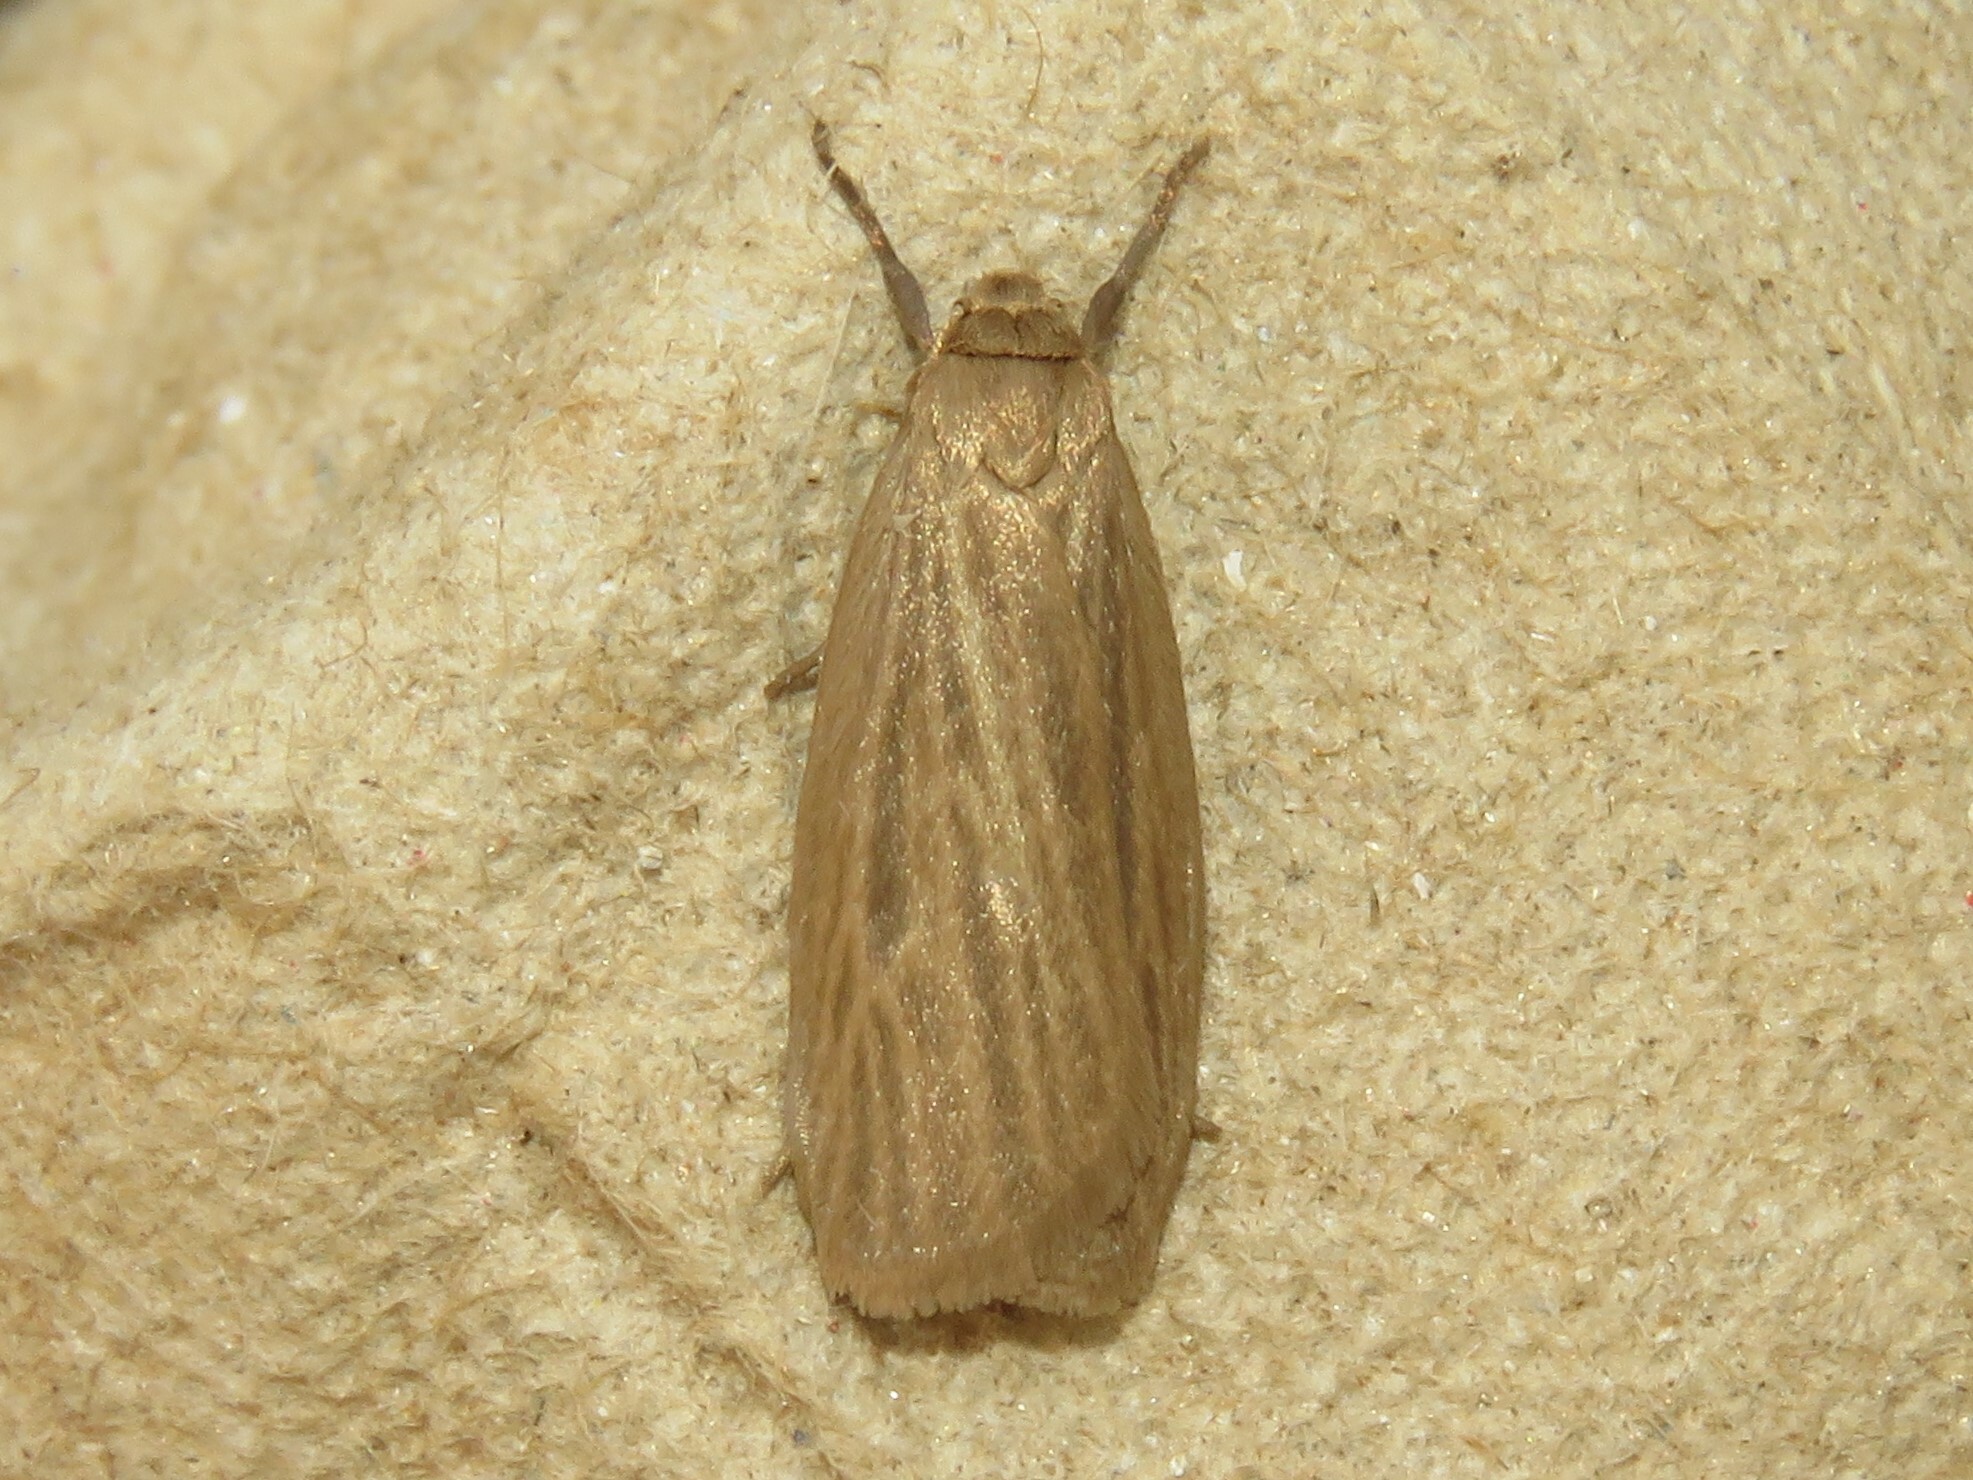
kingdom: Animalia
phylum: Arthropoda
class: Insecta
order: Lepidoptera
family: Erebidae
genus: Crambidia
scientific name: Crambidia pallida
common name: Pale lichen moth
